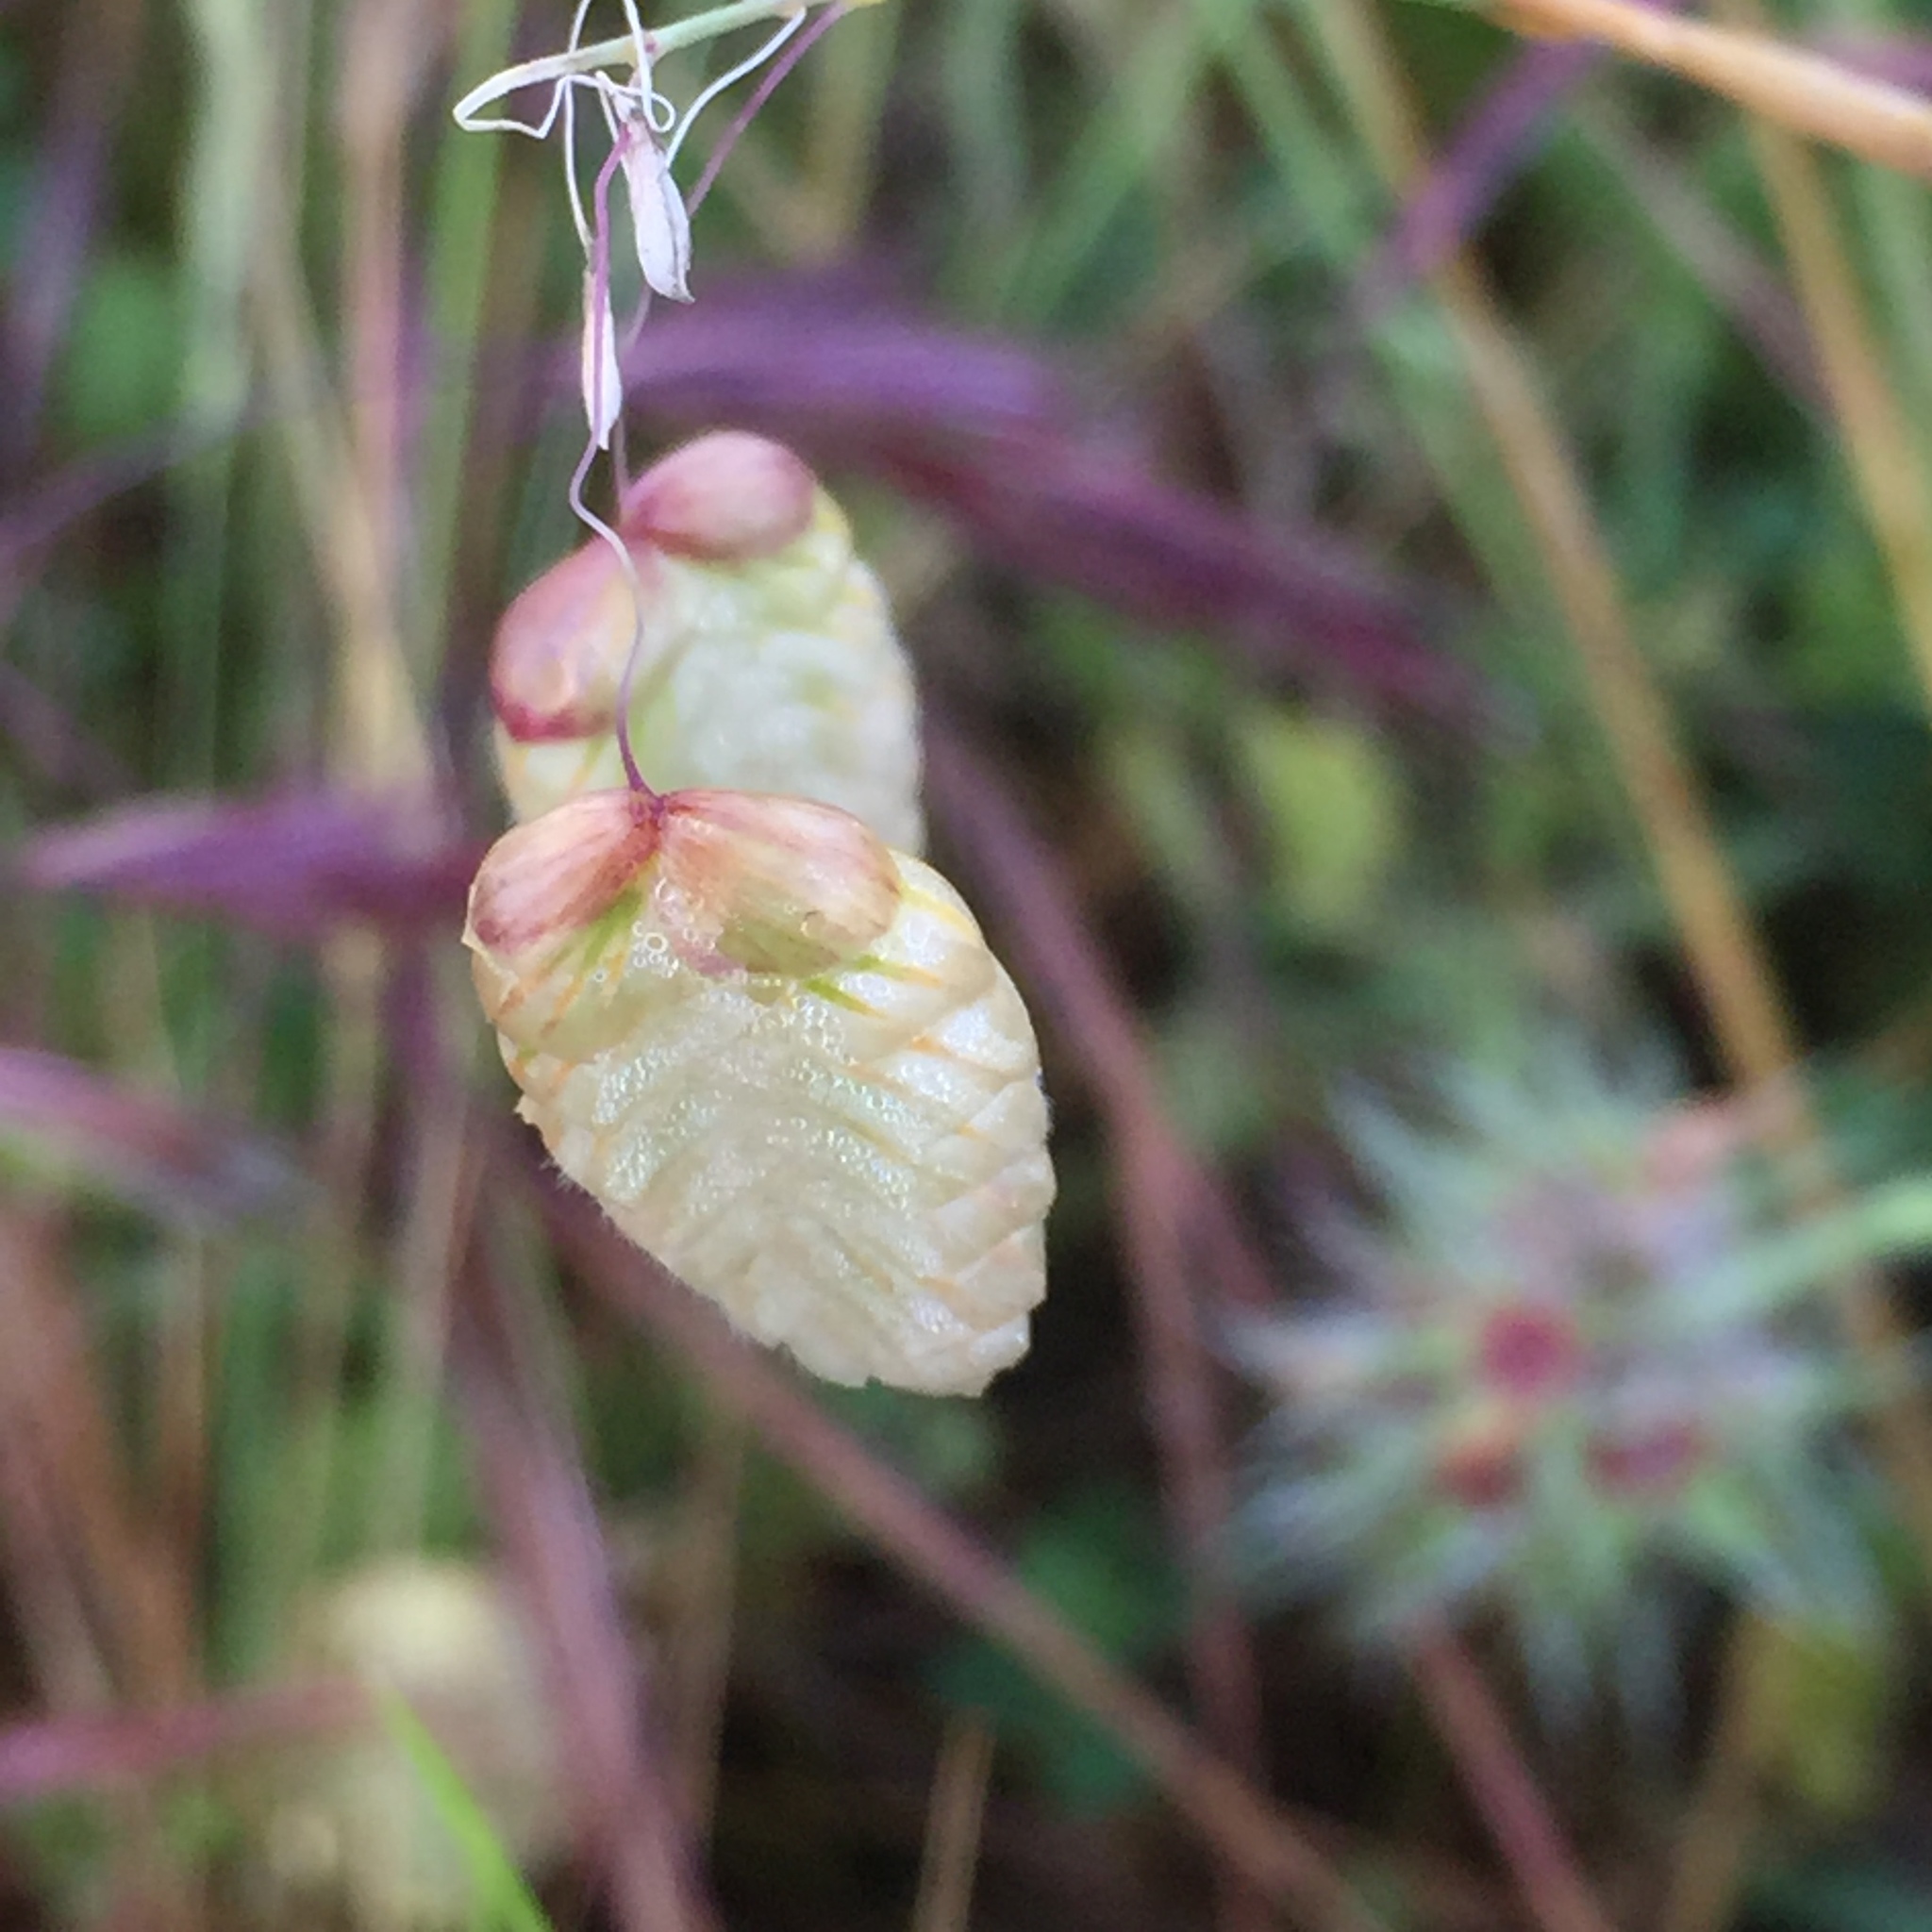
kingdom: Plantae
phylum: Tracheophyta
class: Liliopsida
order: Poales
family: Poaceae
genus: Briza
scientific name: Briza maxima
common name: Big quakinggrass
